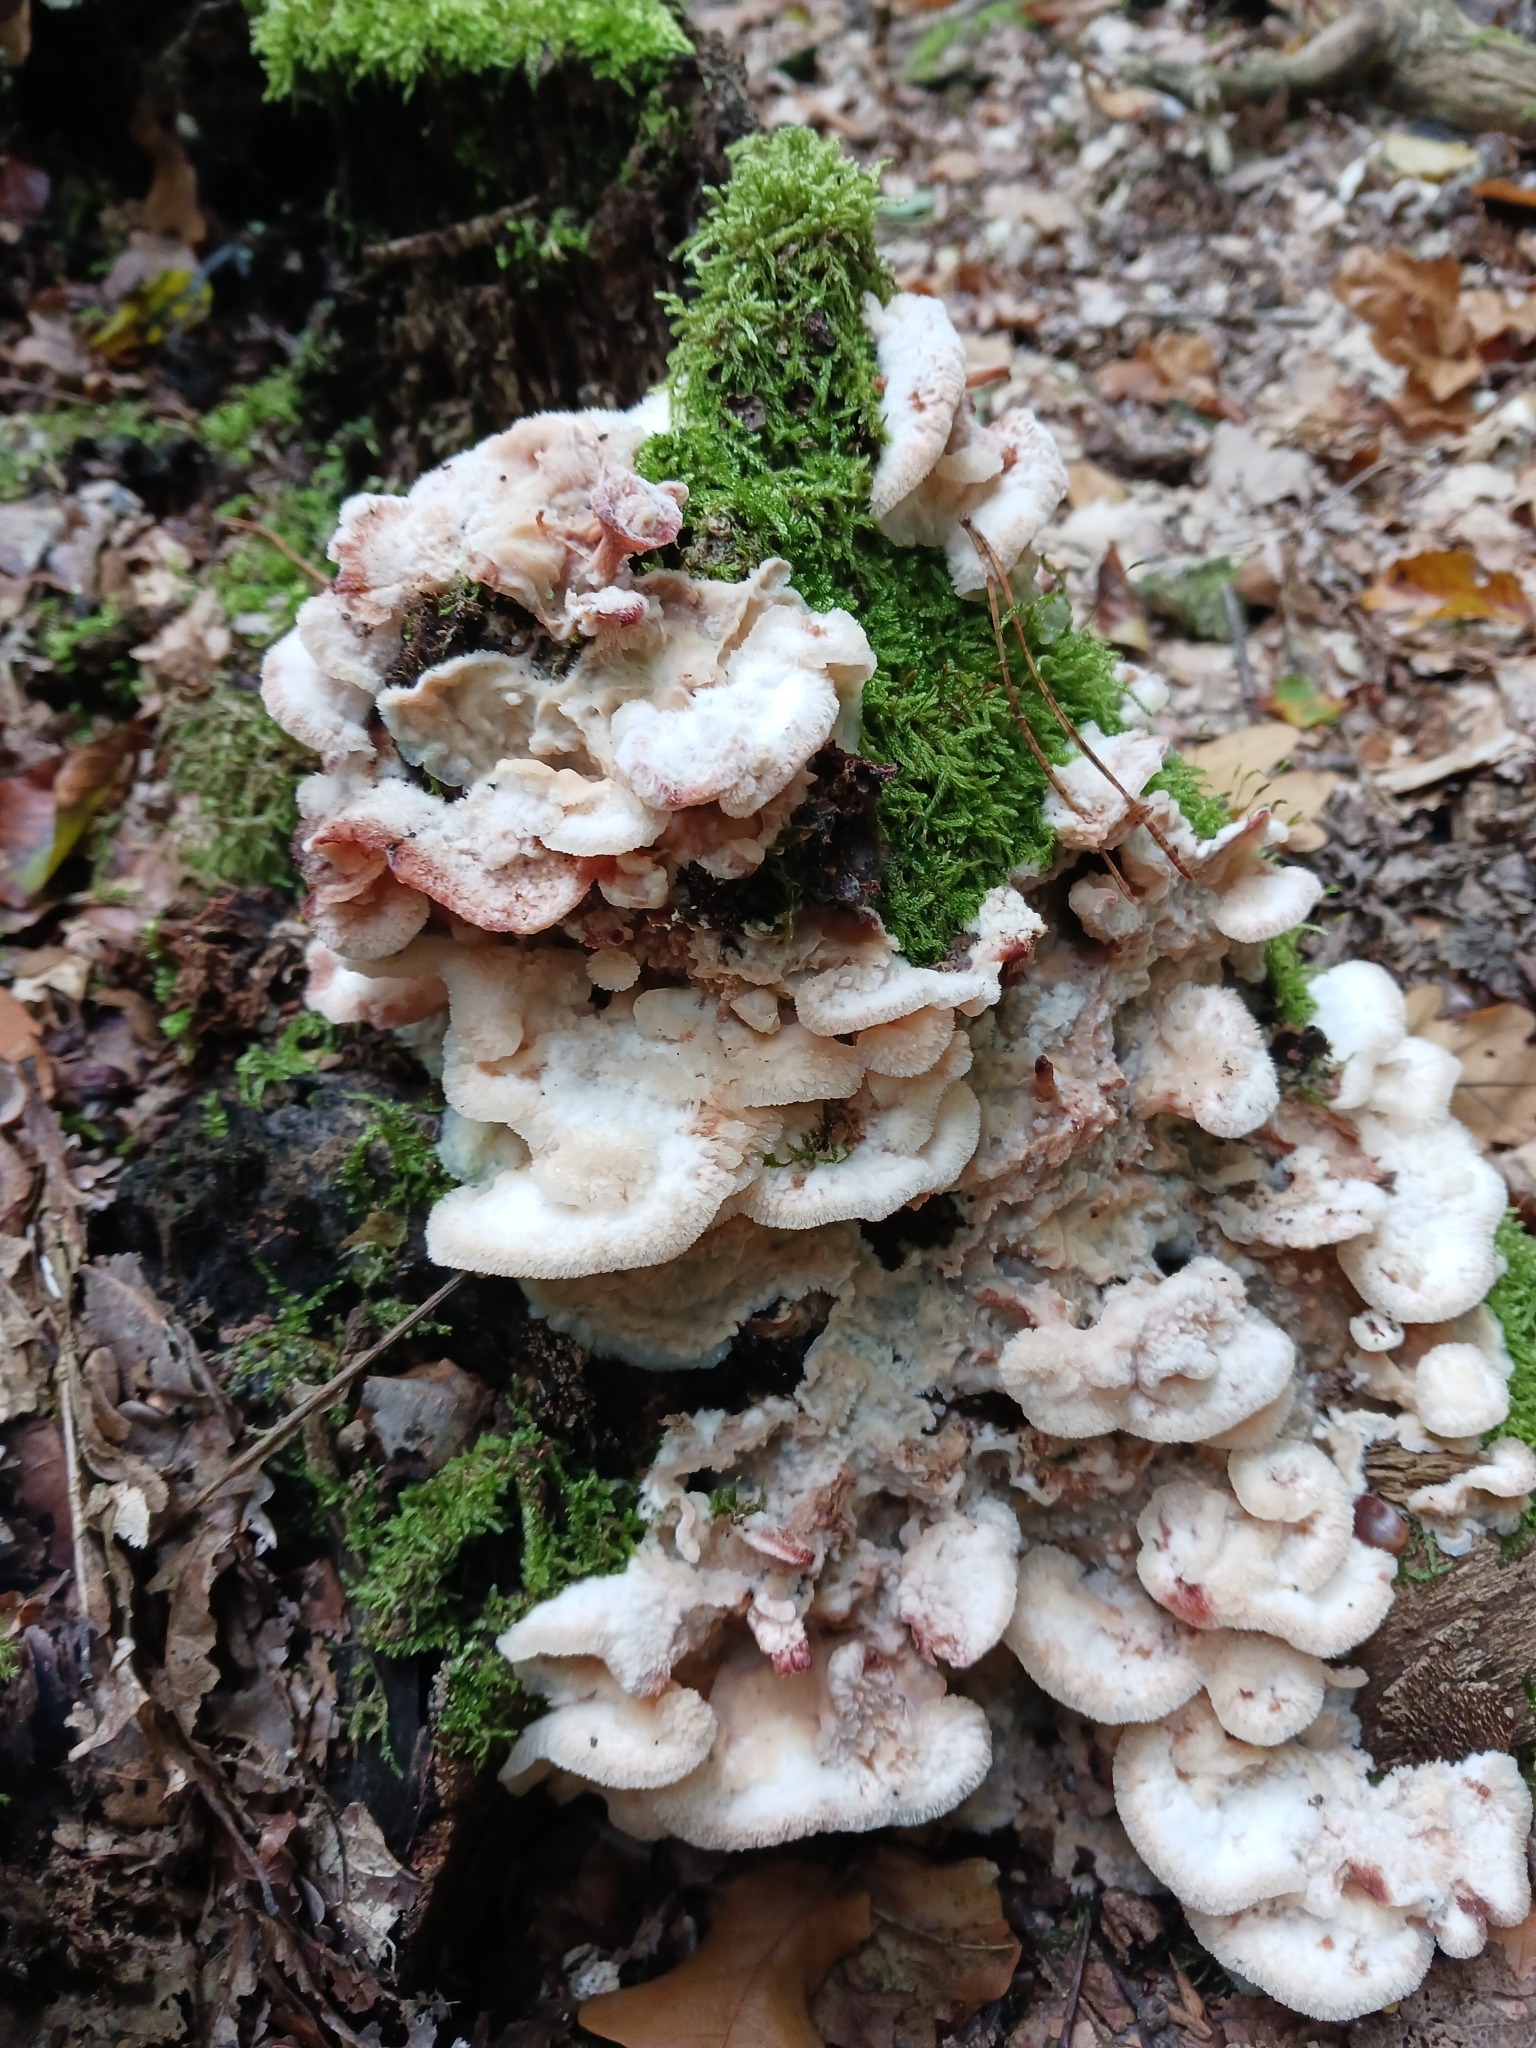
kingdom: Fungi
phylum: Basidiomycota
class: Agaricomycetes
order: Polyporales
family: Meruliaceae
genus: Phlebia
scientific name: Phlebia tremellosa
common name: Jelly rot
